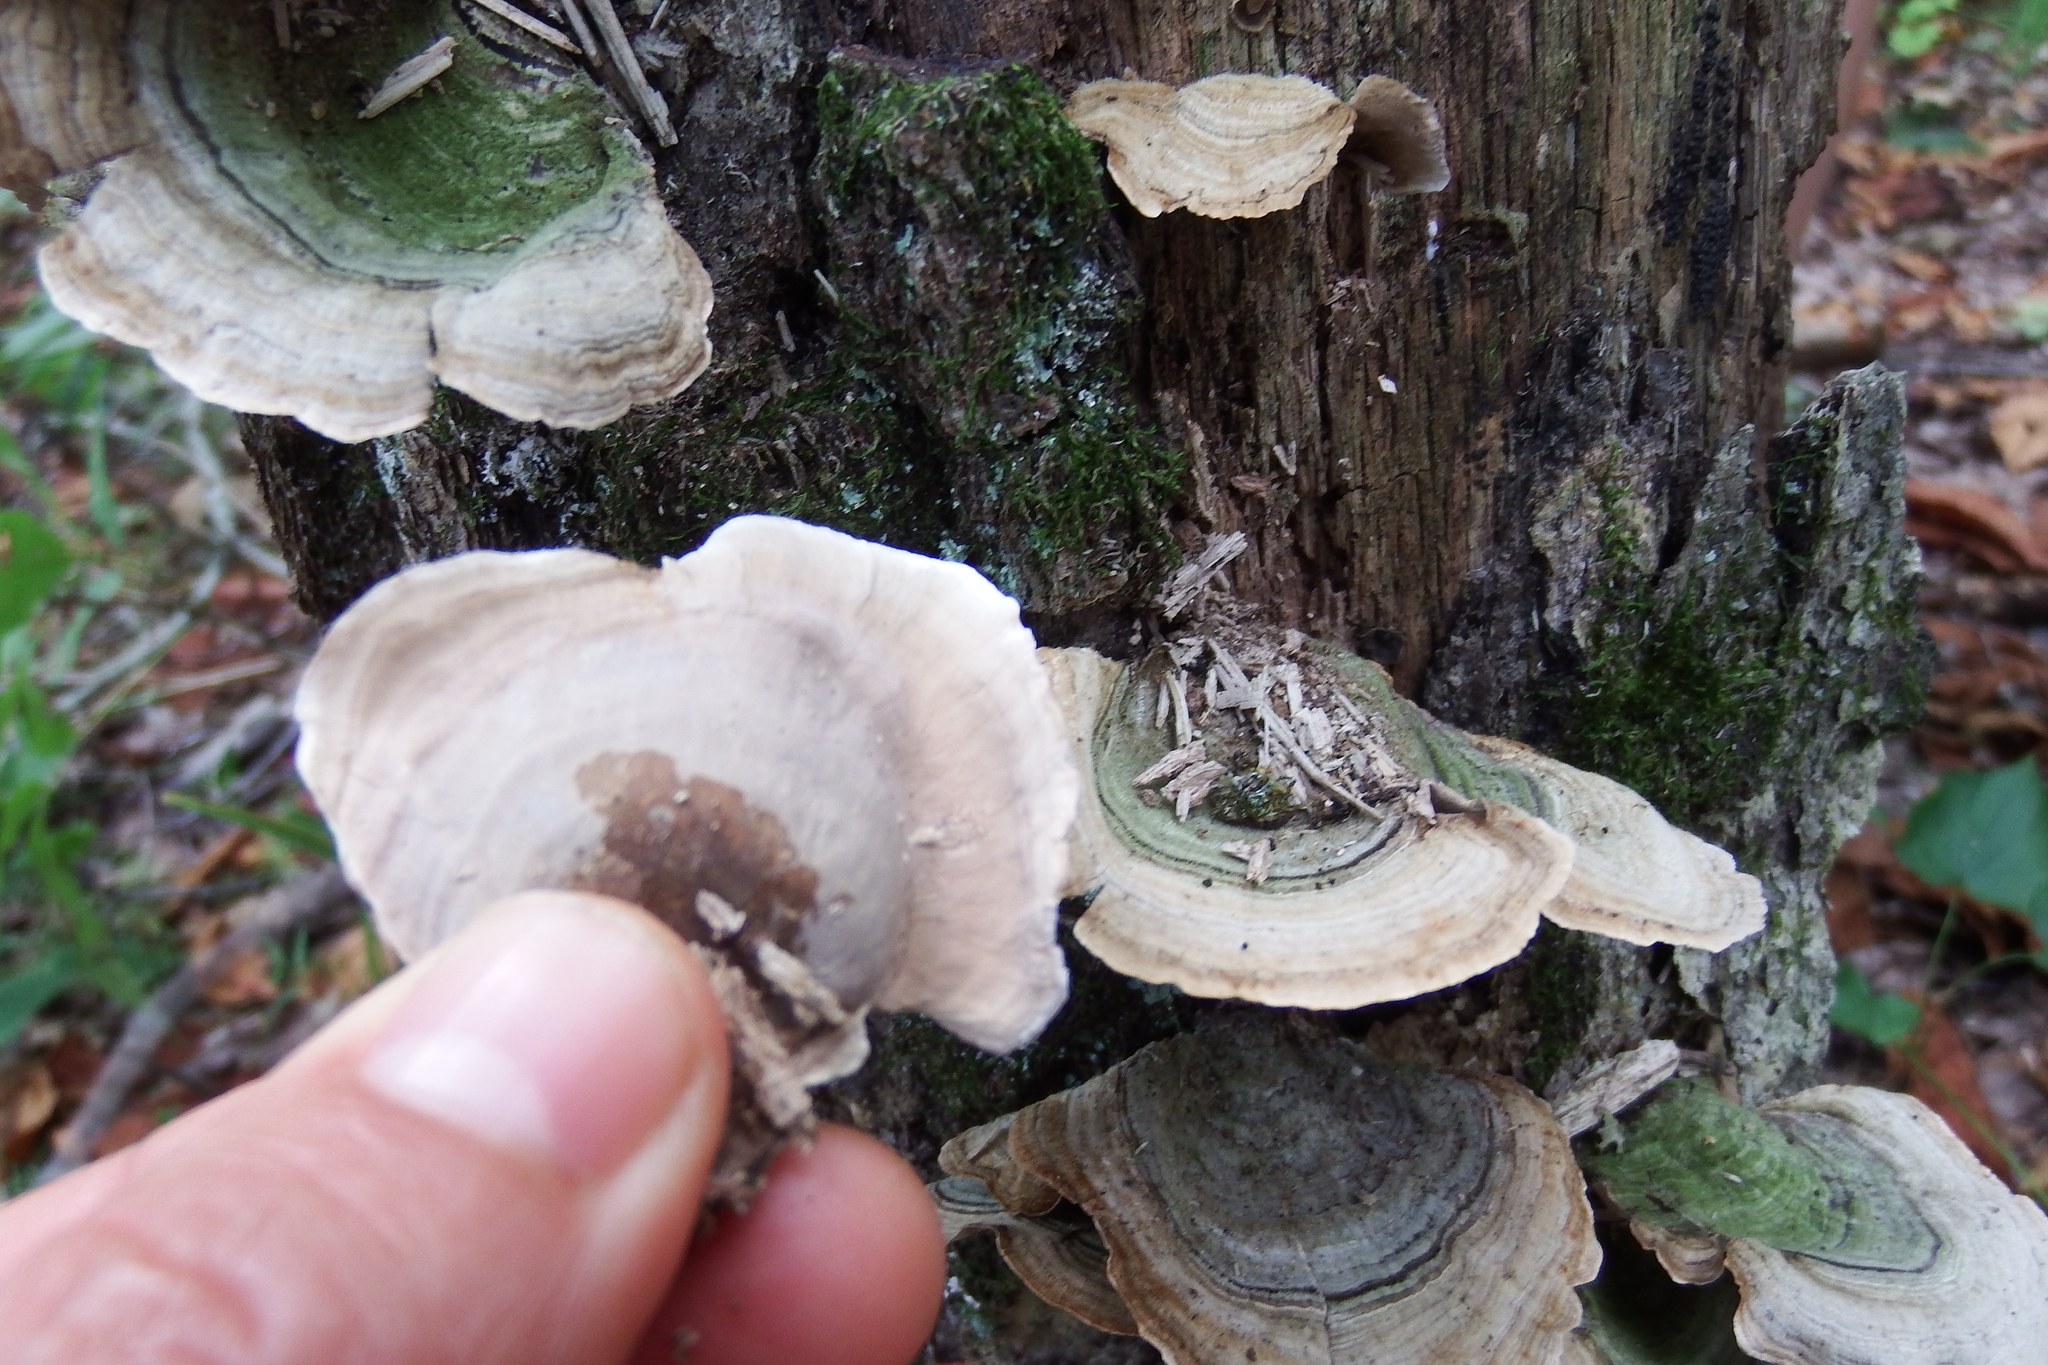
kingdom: Fungi
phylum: Basidiomycota
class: Agaricomycetes
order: Russulales
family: Stereaceae
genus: Stereum
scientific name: Stereum ostrea
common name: False turkeytail
